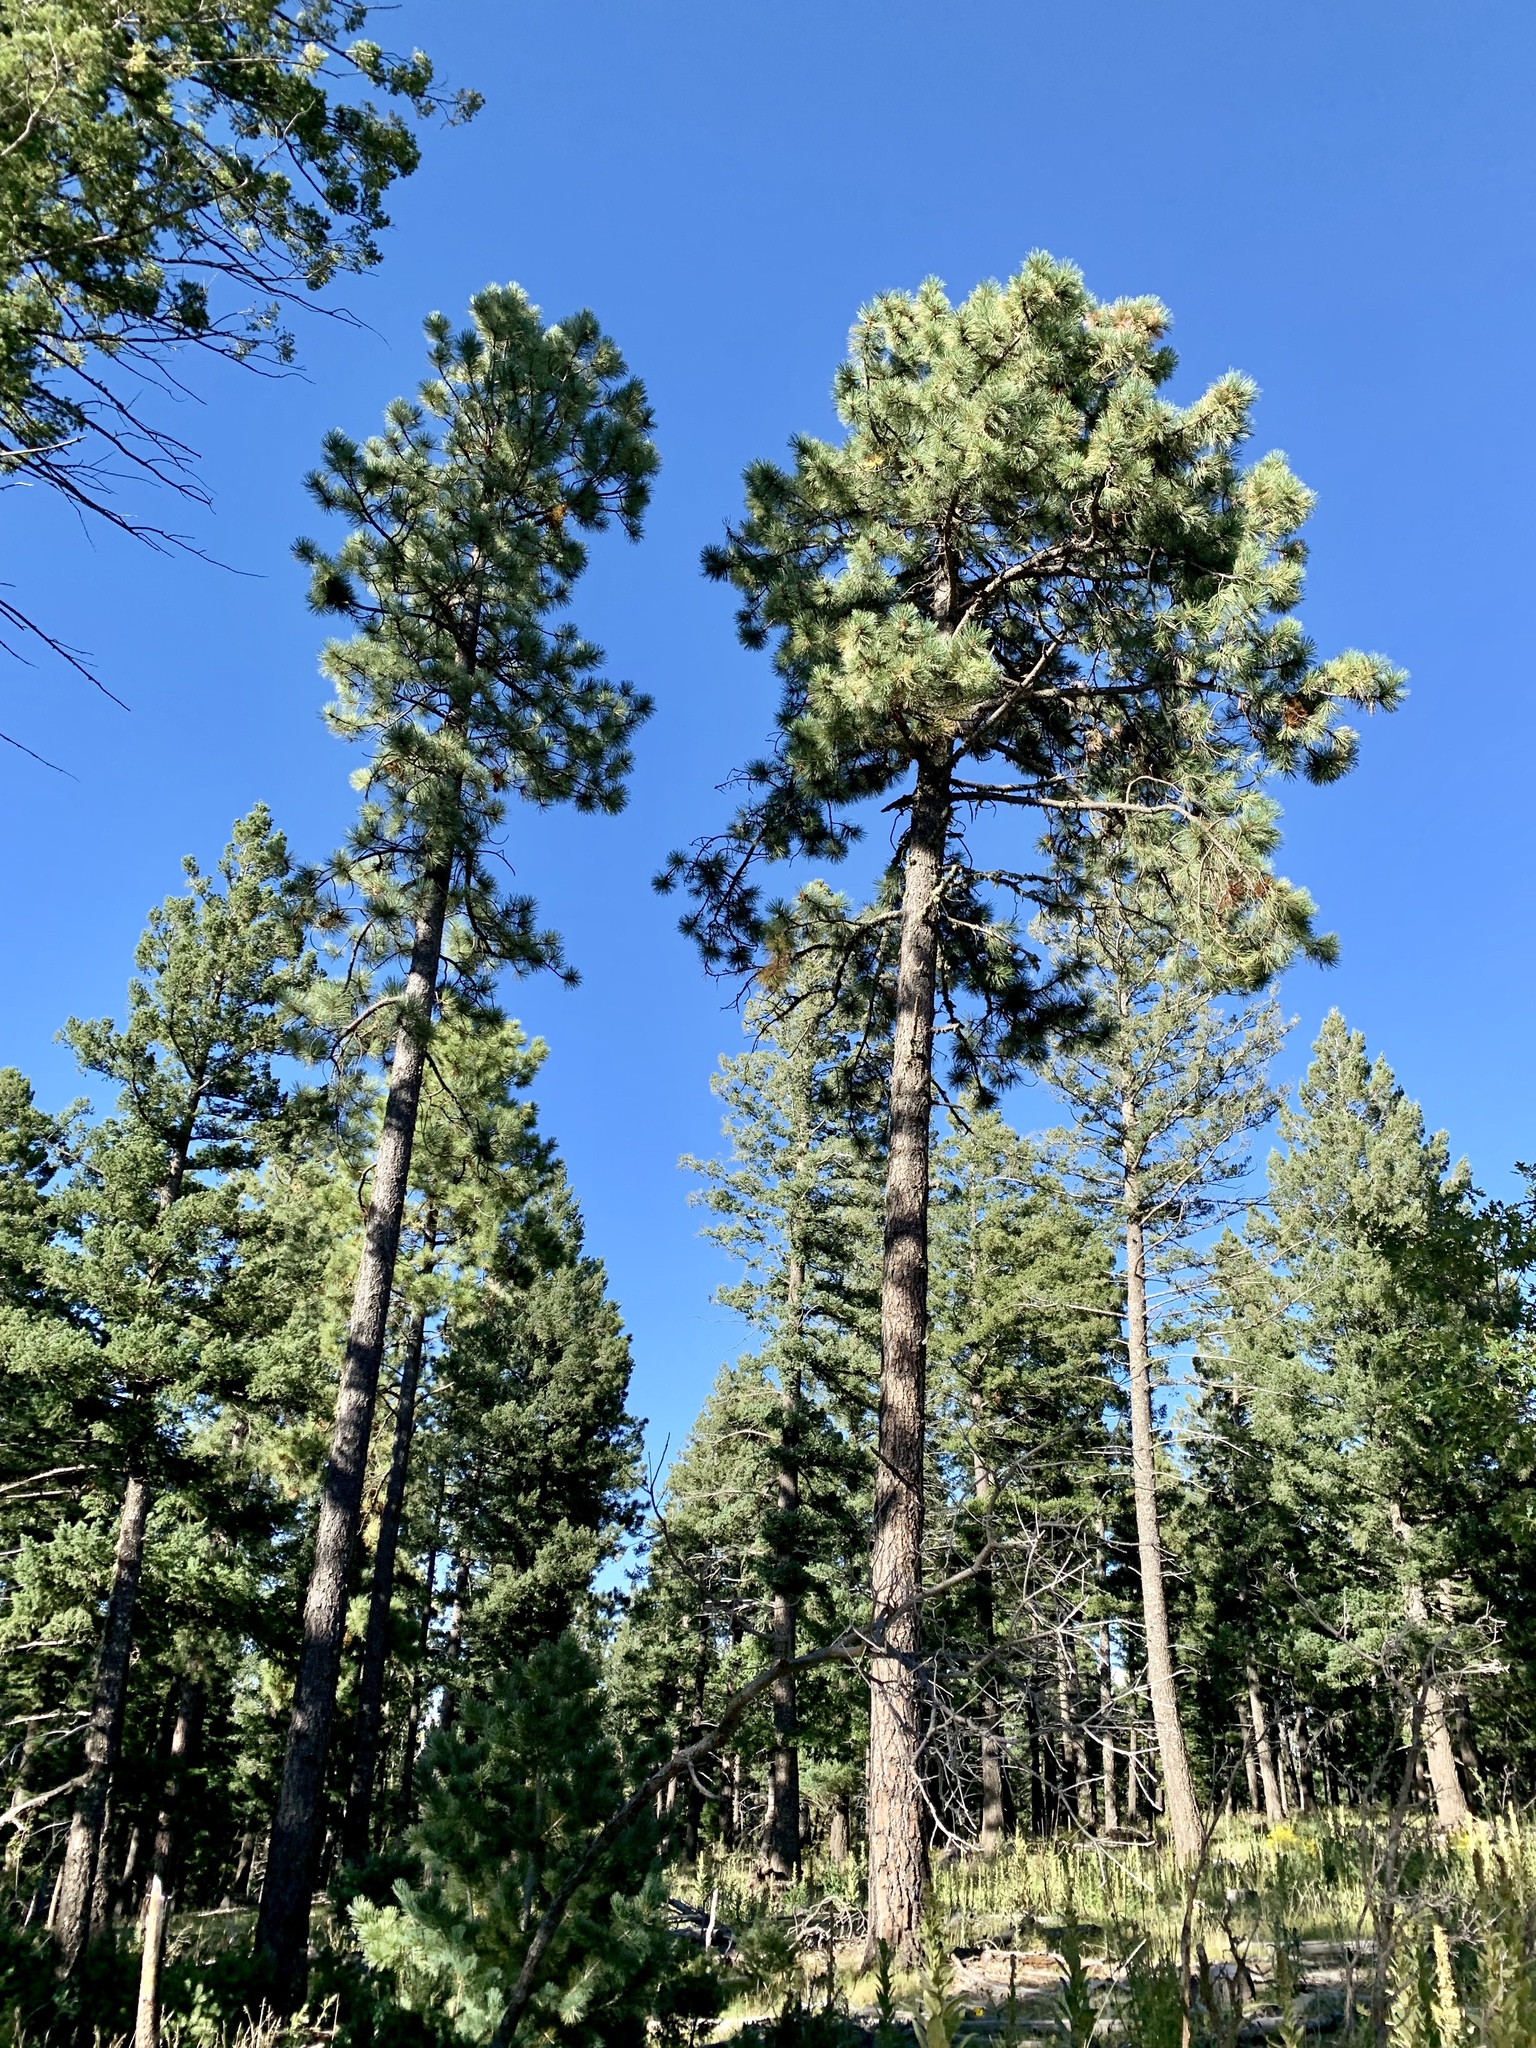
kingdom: Plantae
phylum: Tracheophyta
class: Pinopsida
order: Pinales
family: Pinaceae
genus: Pinus
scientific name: Pinus ponderosa
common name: Western yellow-pine
